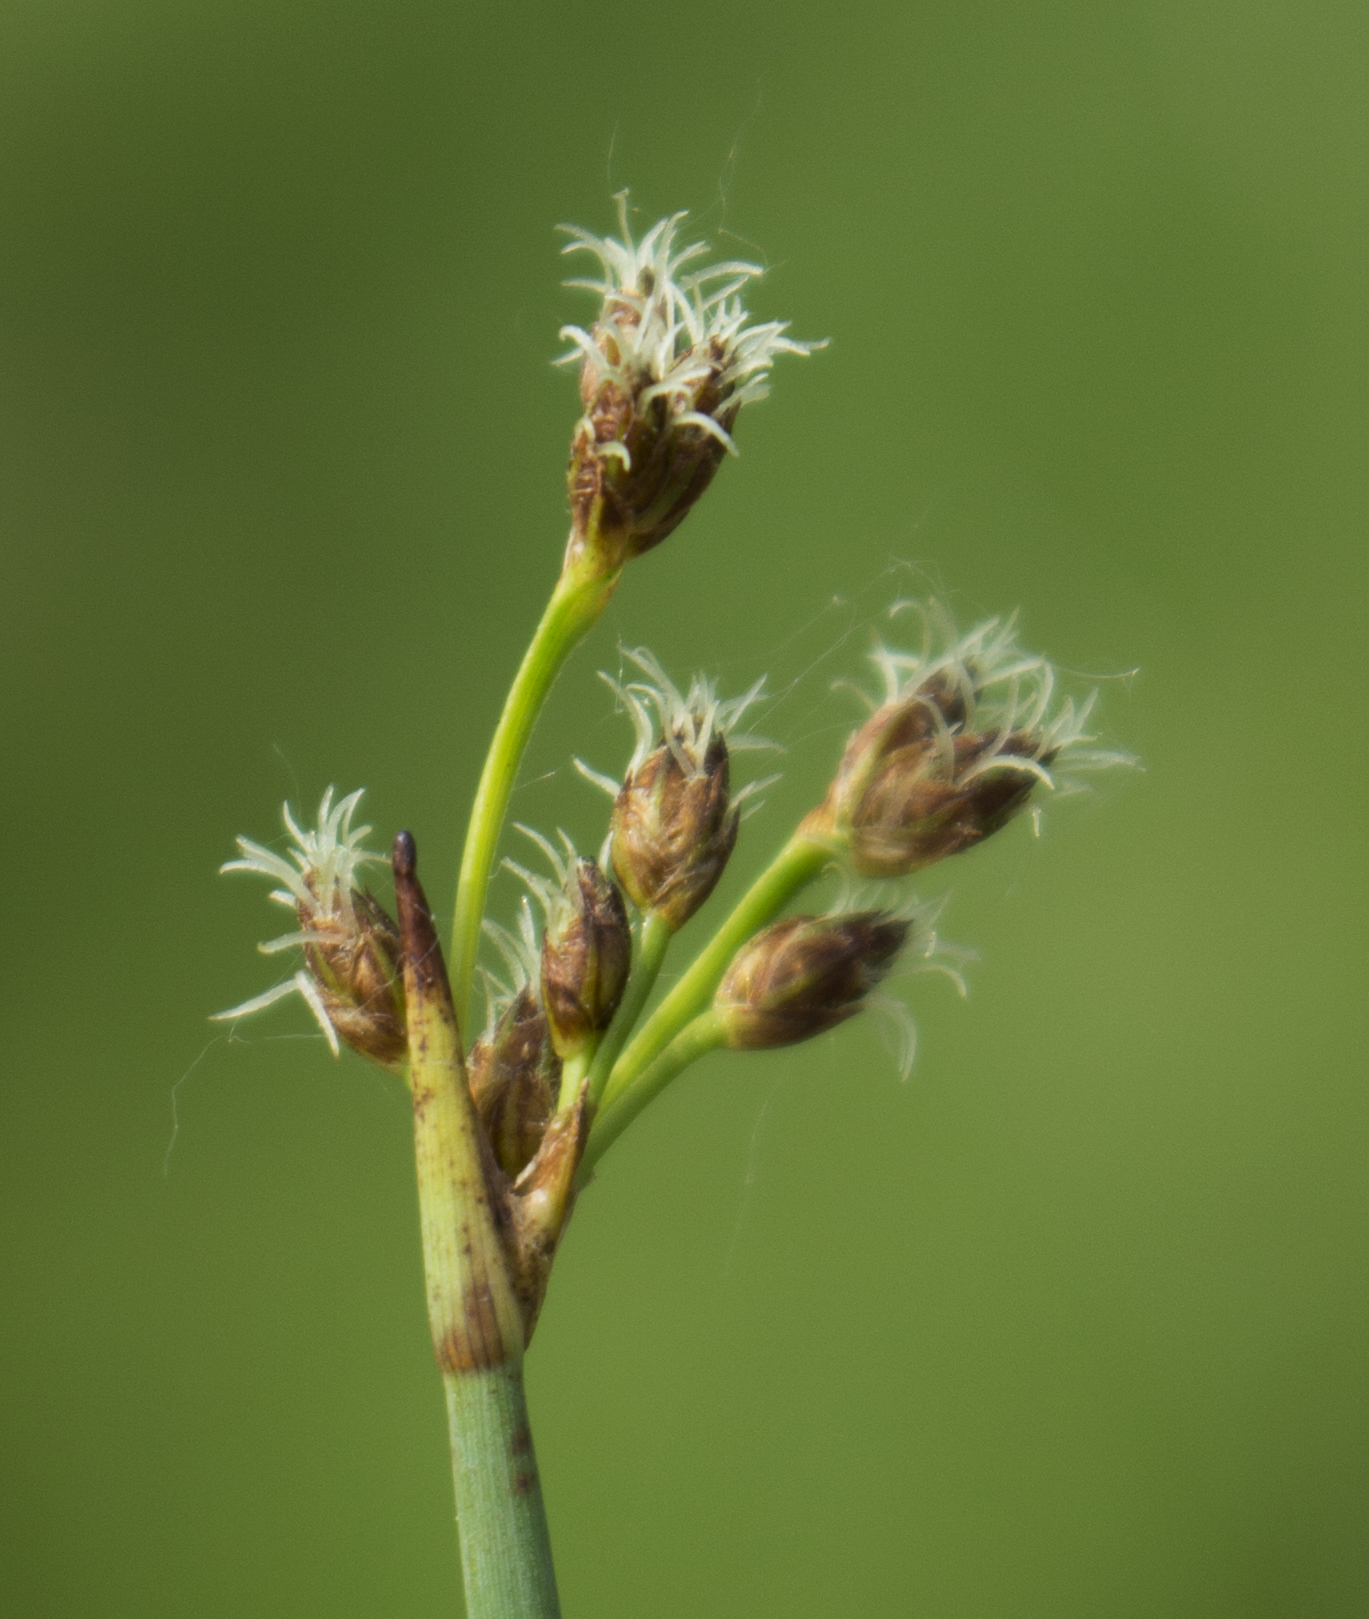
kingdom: Plantae
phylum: Tracheophyta
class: Liliopsida
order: Poales
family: Cyperaceae
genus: Schoenoplectus
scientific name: Schoenoplectus acutus
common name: Hardstem bulrush
